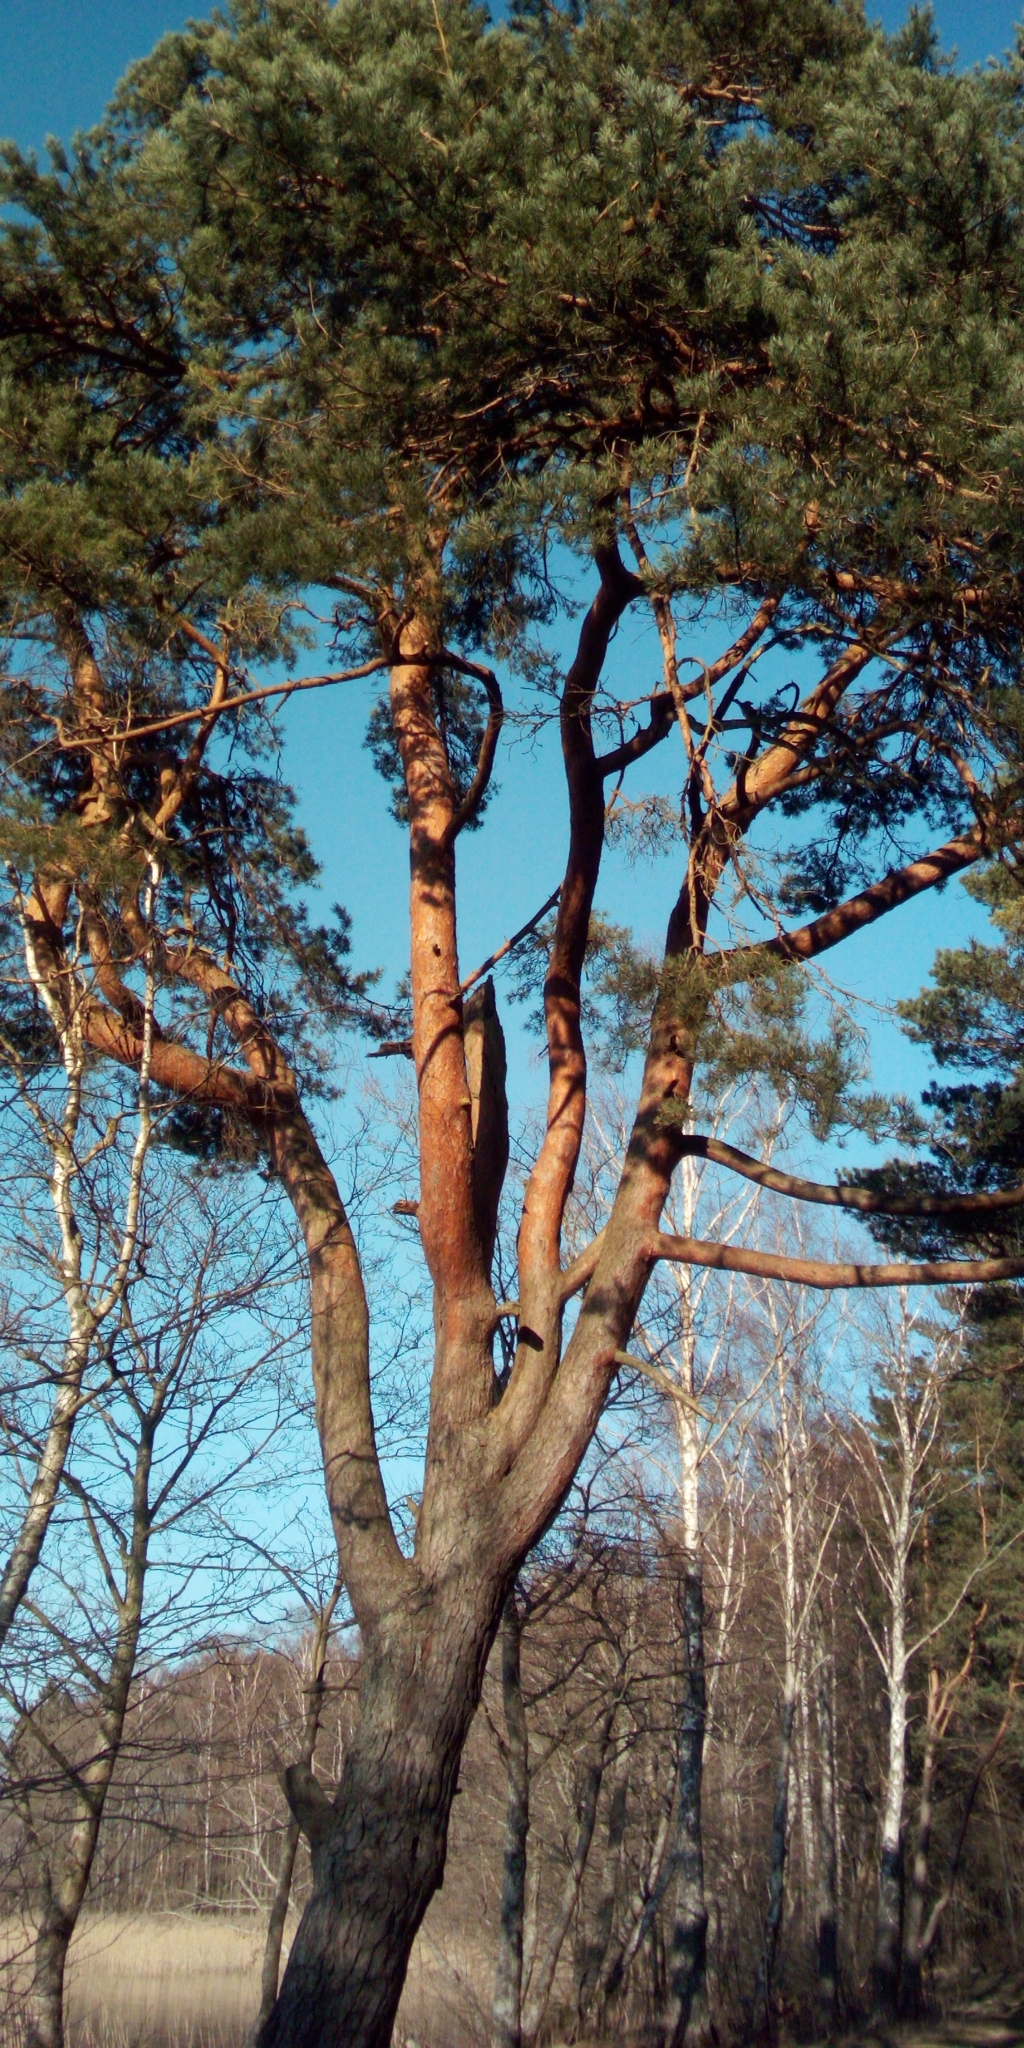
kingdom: Plantae
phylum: Tracheophyta
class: Pinopsida
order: Pinales
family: Pinaceae
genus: Pinus
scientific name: Pinus sylvestris
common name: Scots pine
